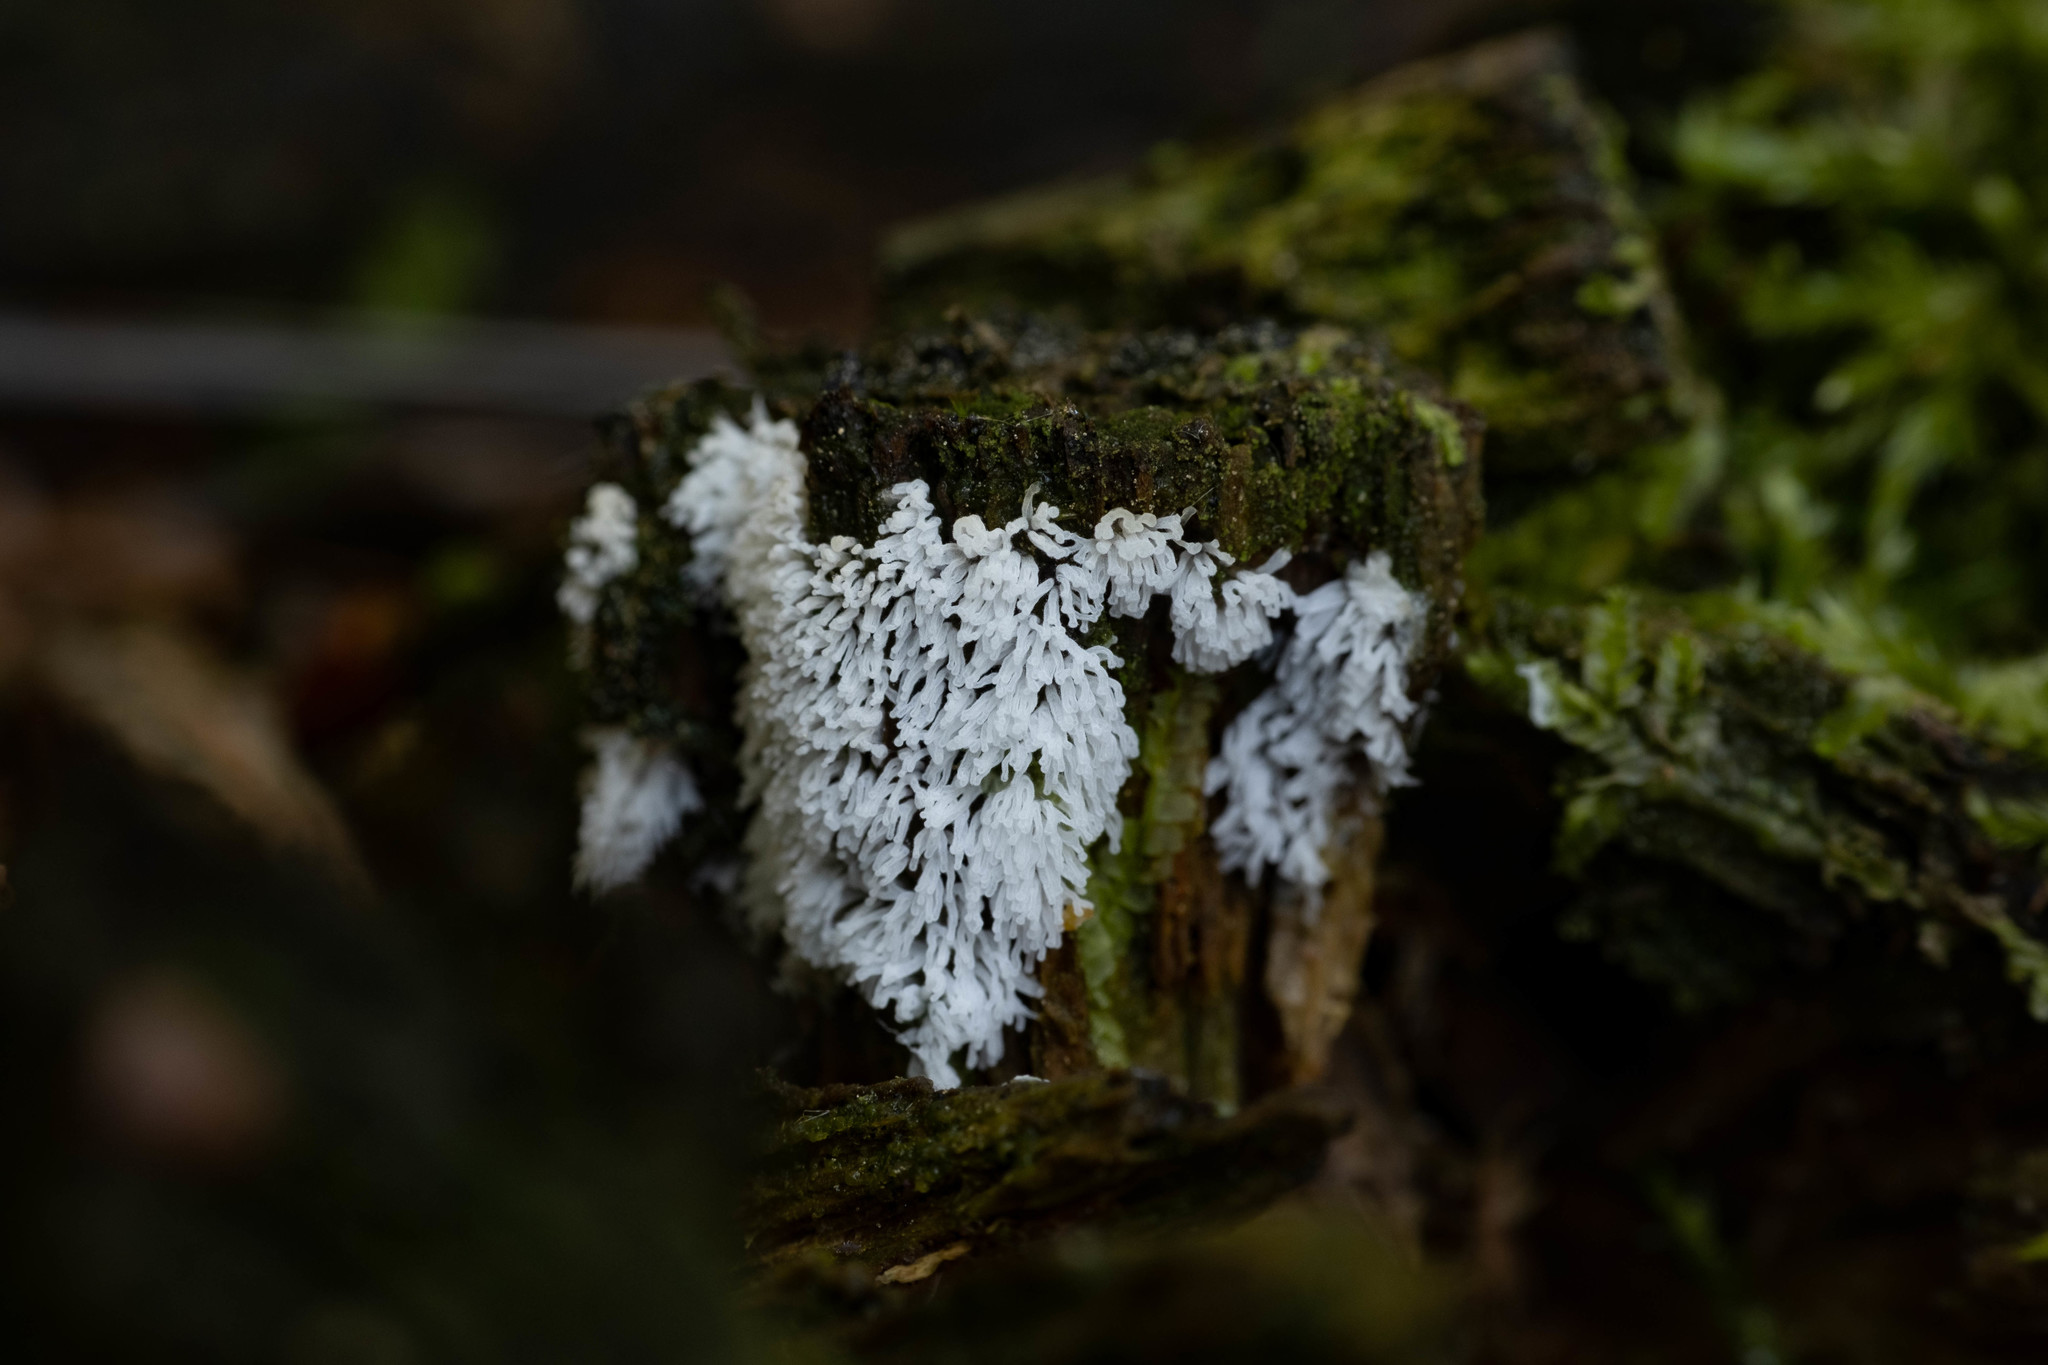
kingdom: Protozoa
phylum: Mycetozoa
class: Protosteliomycetes
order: Ceratiomyxales
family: Ceratiomyxaceae
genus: Ceratiomyxa
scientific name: Ceratiomyxa fruticulosa
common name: Honeycomb coral slime mold
